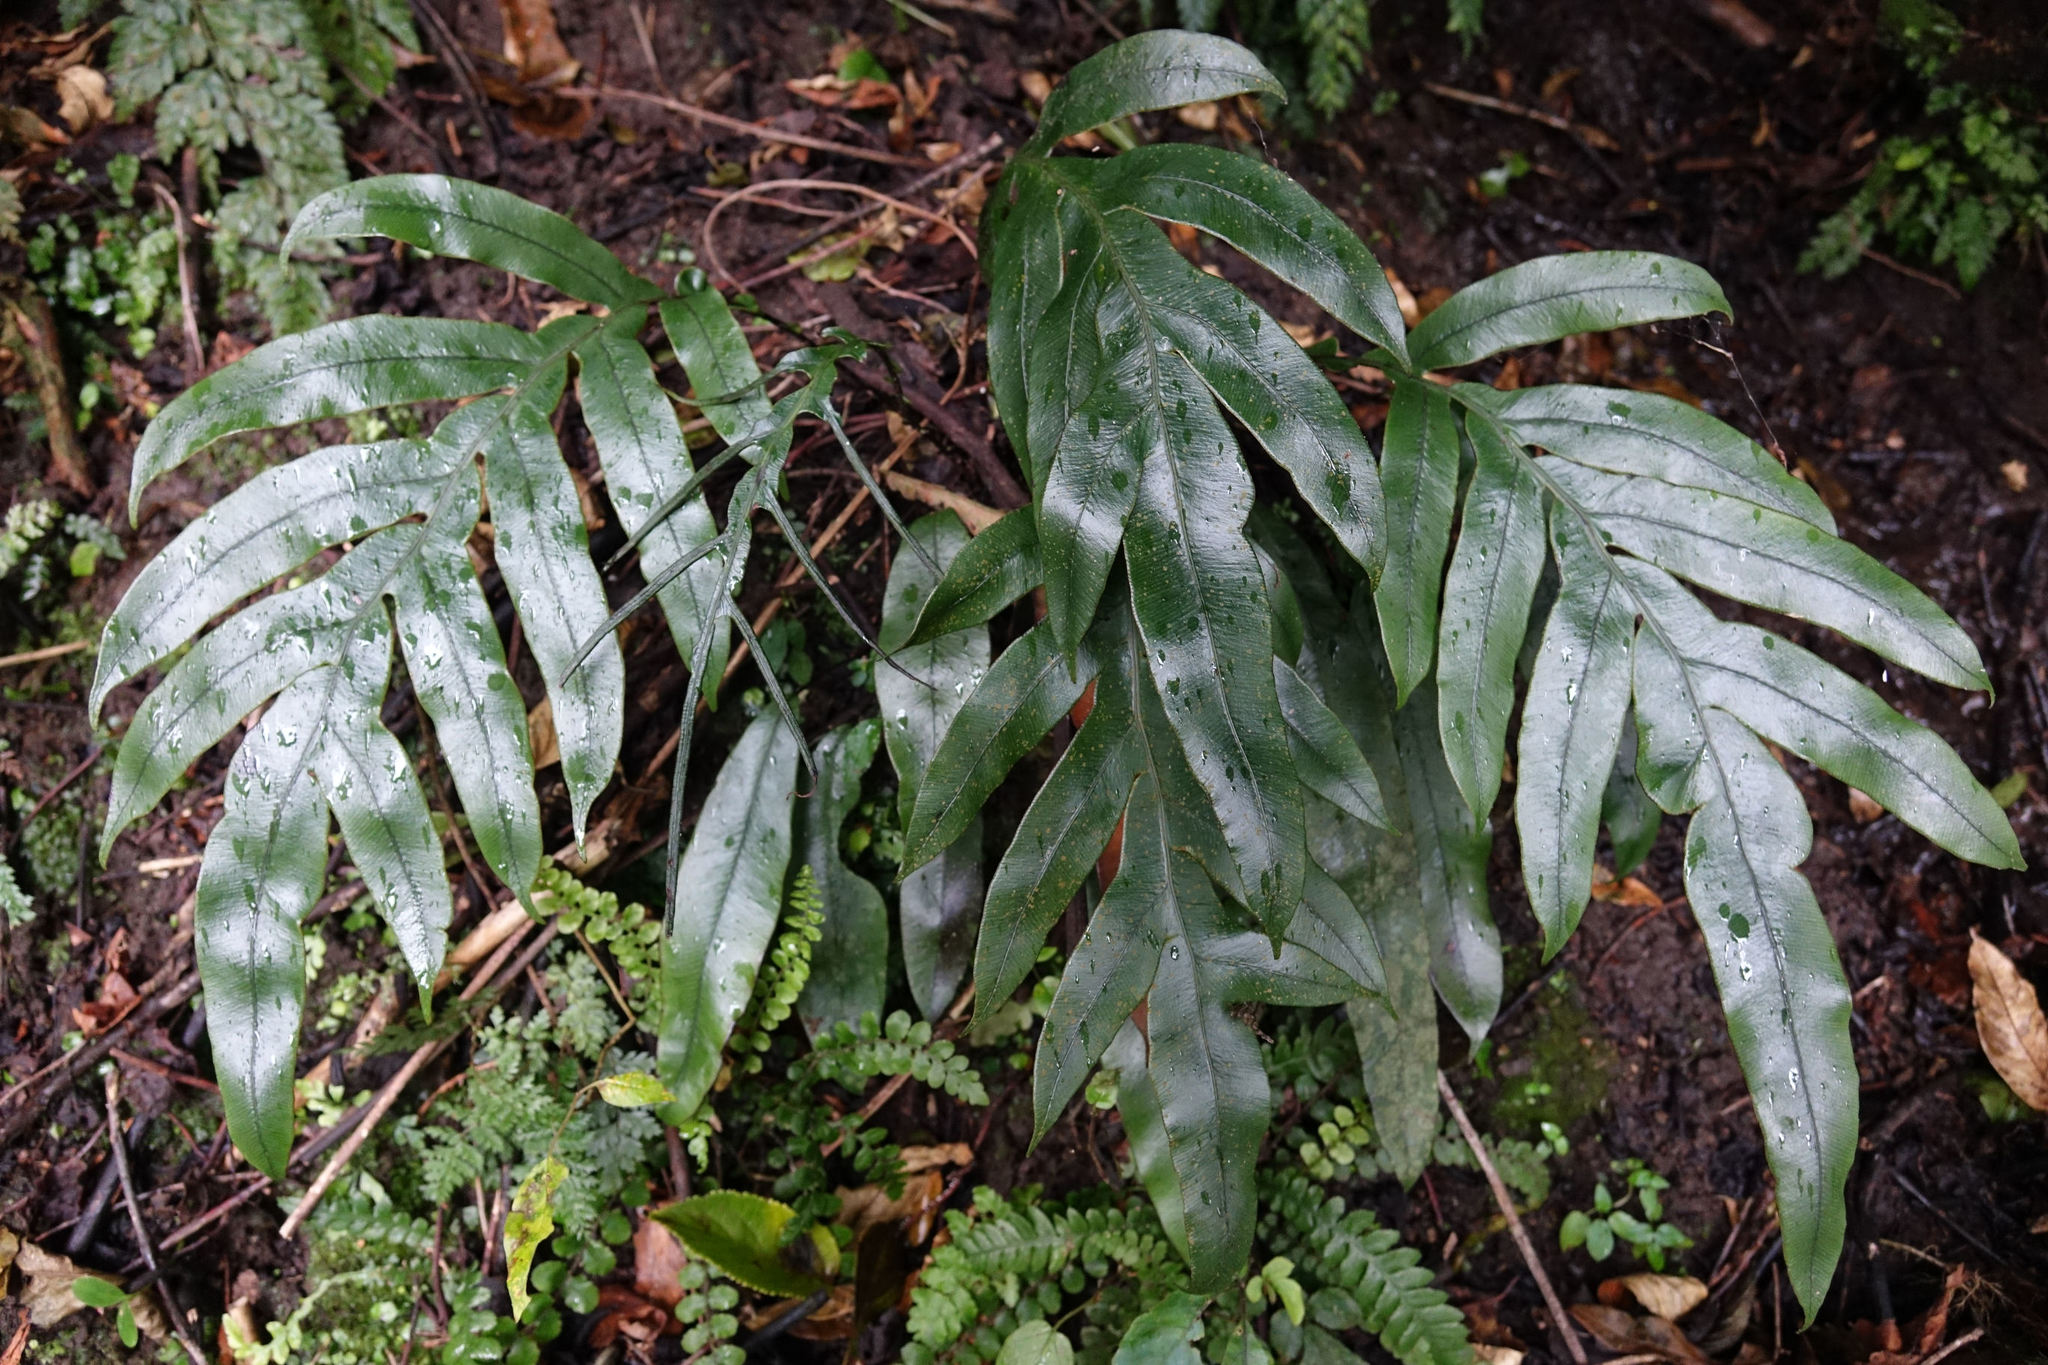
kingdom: Plantae
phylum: Tracheophyta
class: Polypodiopsida
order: Polypodiales
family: Blechnaceae
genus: Austroblechnum
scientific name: Austroblechnum colensoi
